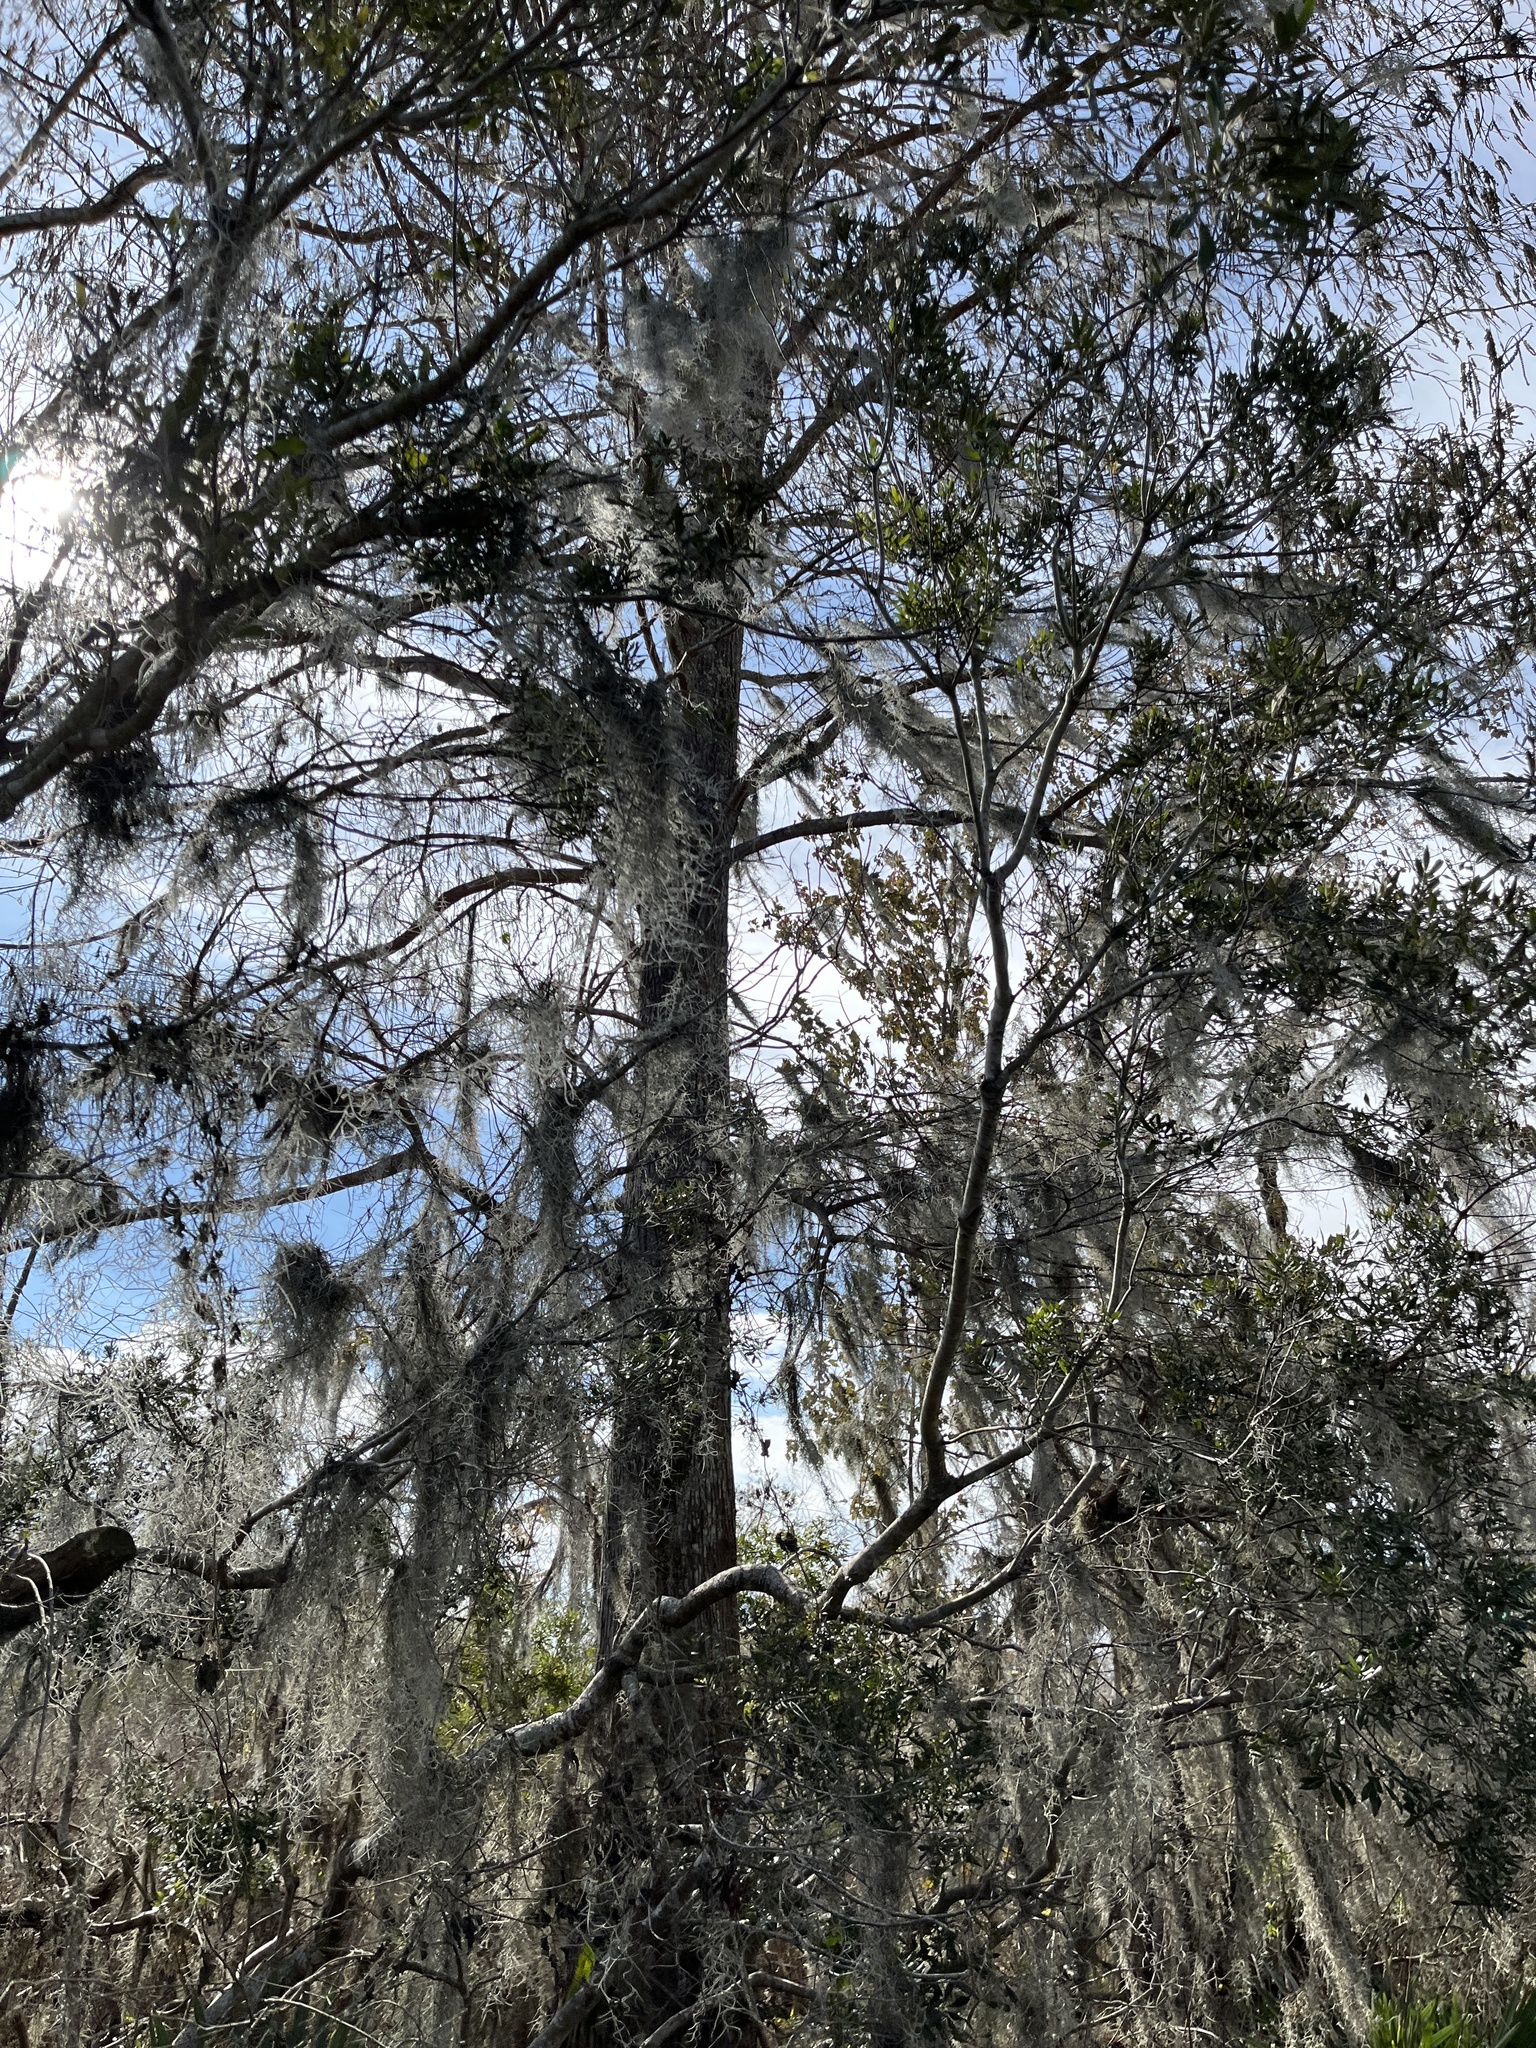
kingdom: Plantae
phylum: Tracheophyta
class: Liliopsida
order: Poales
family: Bromeliaceae
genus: Tillandsia
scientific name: Tillandsia usneoides
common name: Spanish moss
